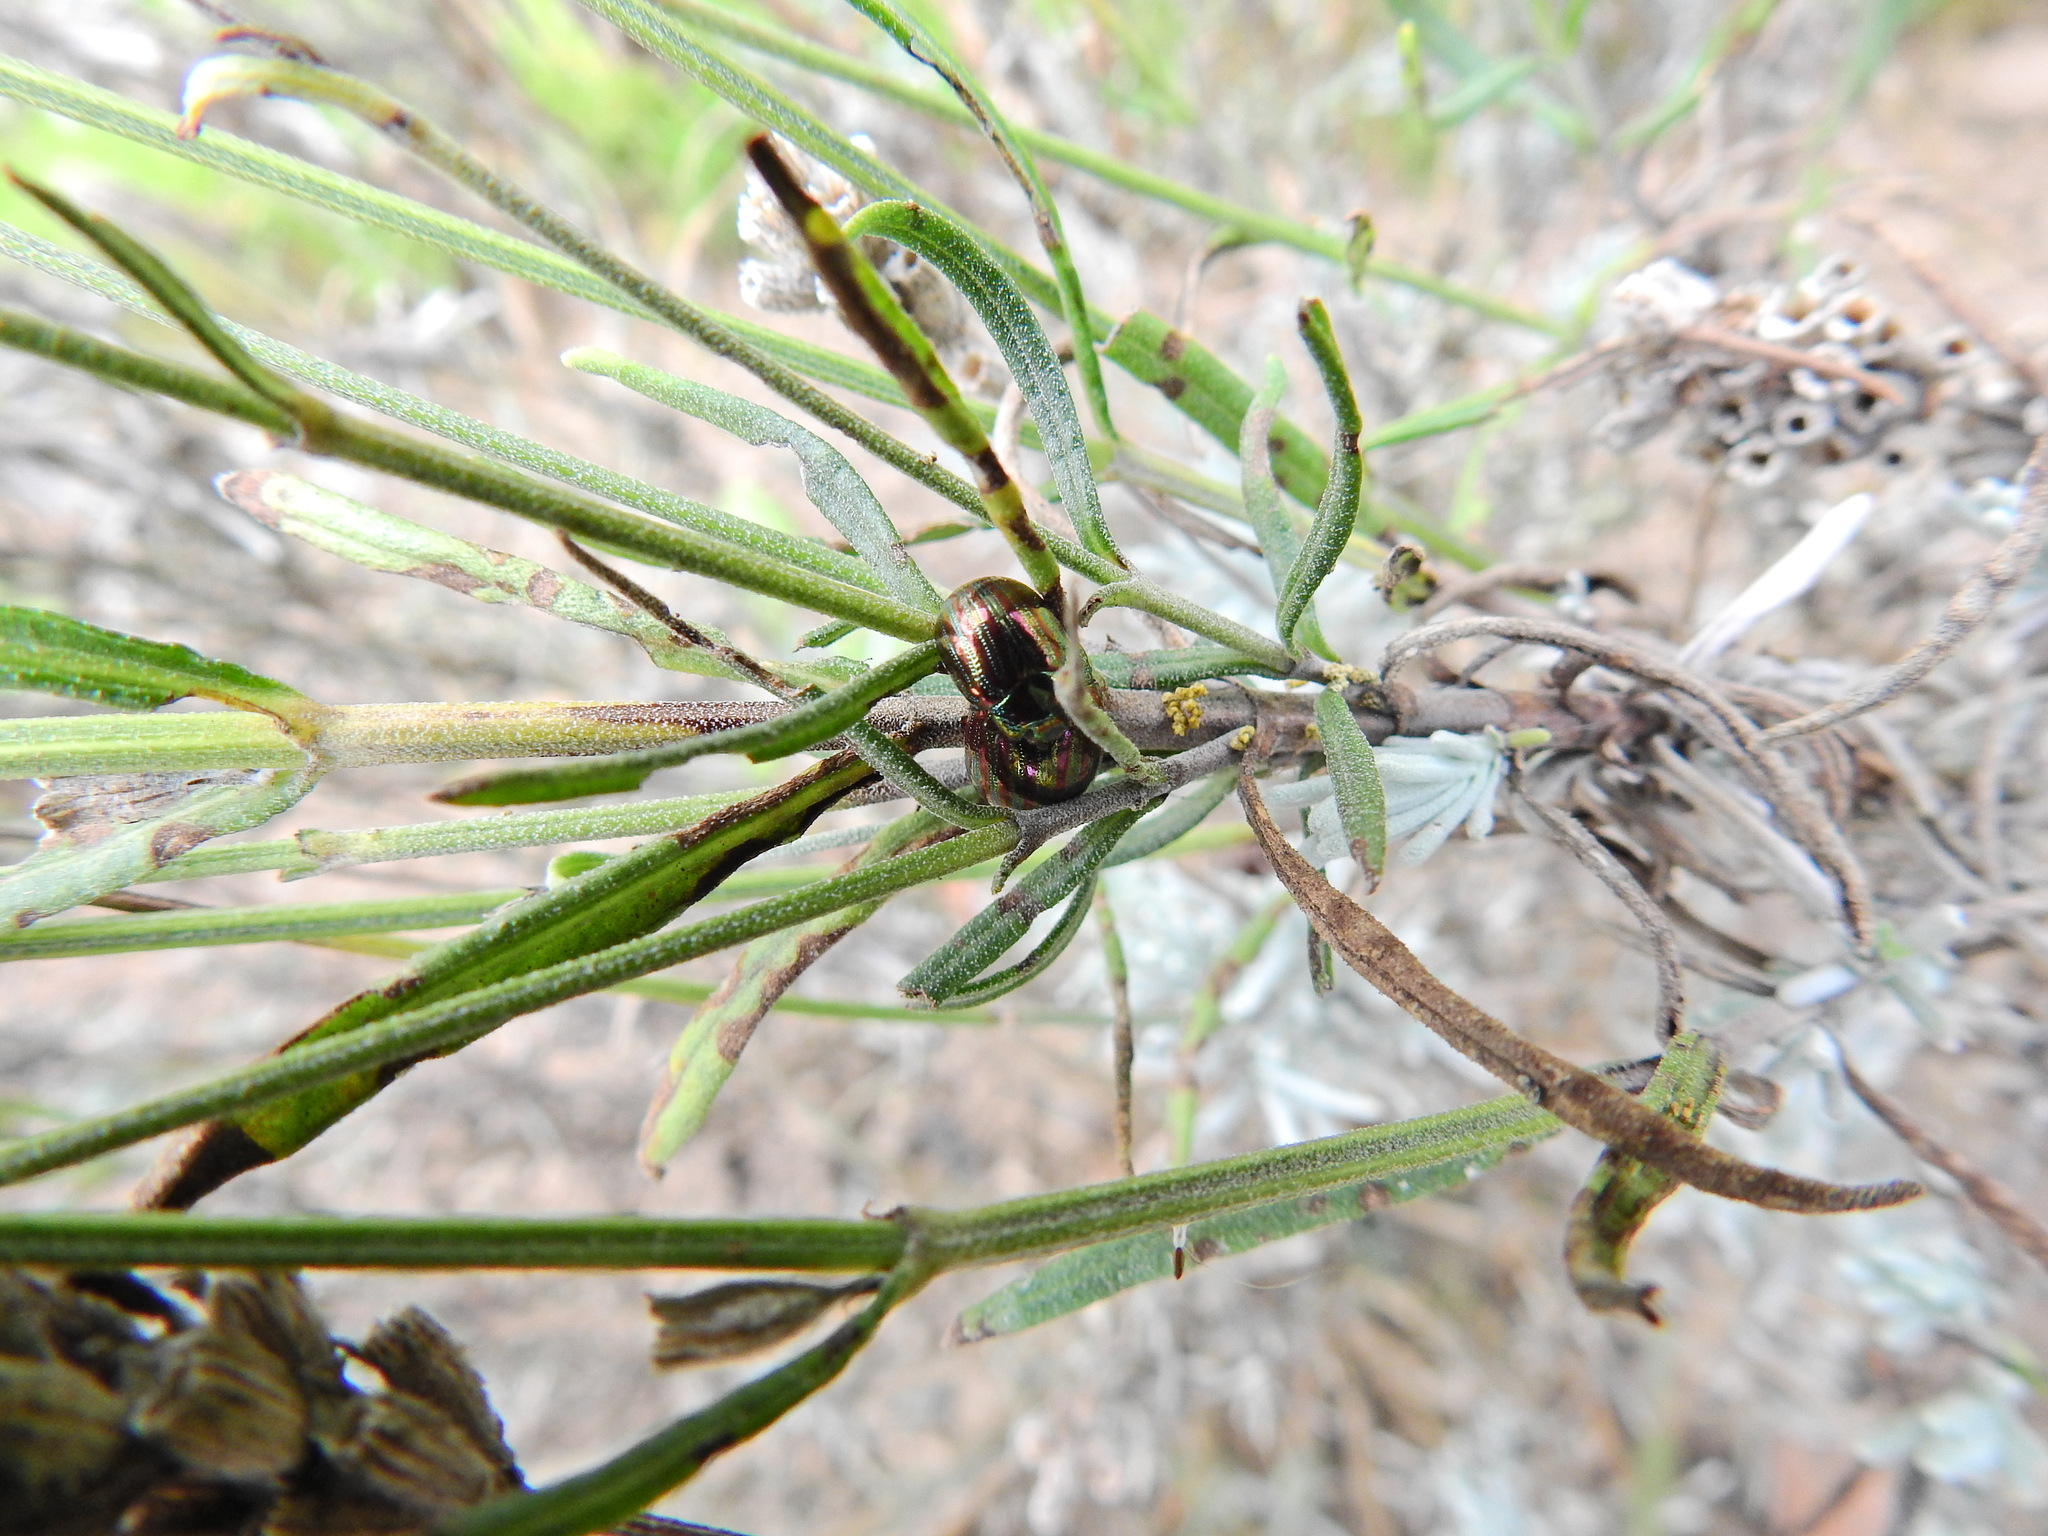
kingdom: Animalia
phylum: Arthropoda
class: Insecta
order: Coleoptera
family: Chrysomelidae
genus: Chrysolina
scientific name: Chrysolina americana
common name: Rosemary beetle
